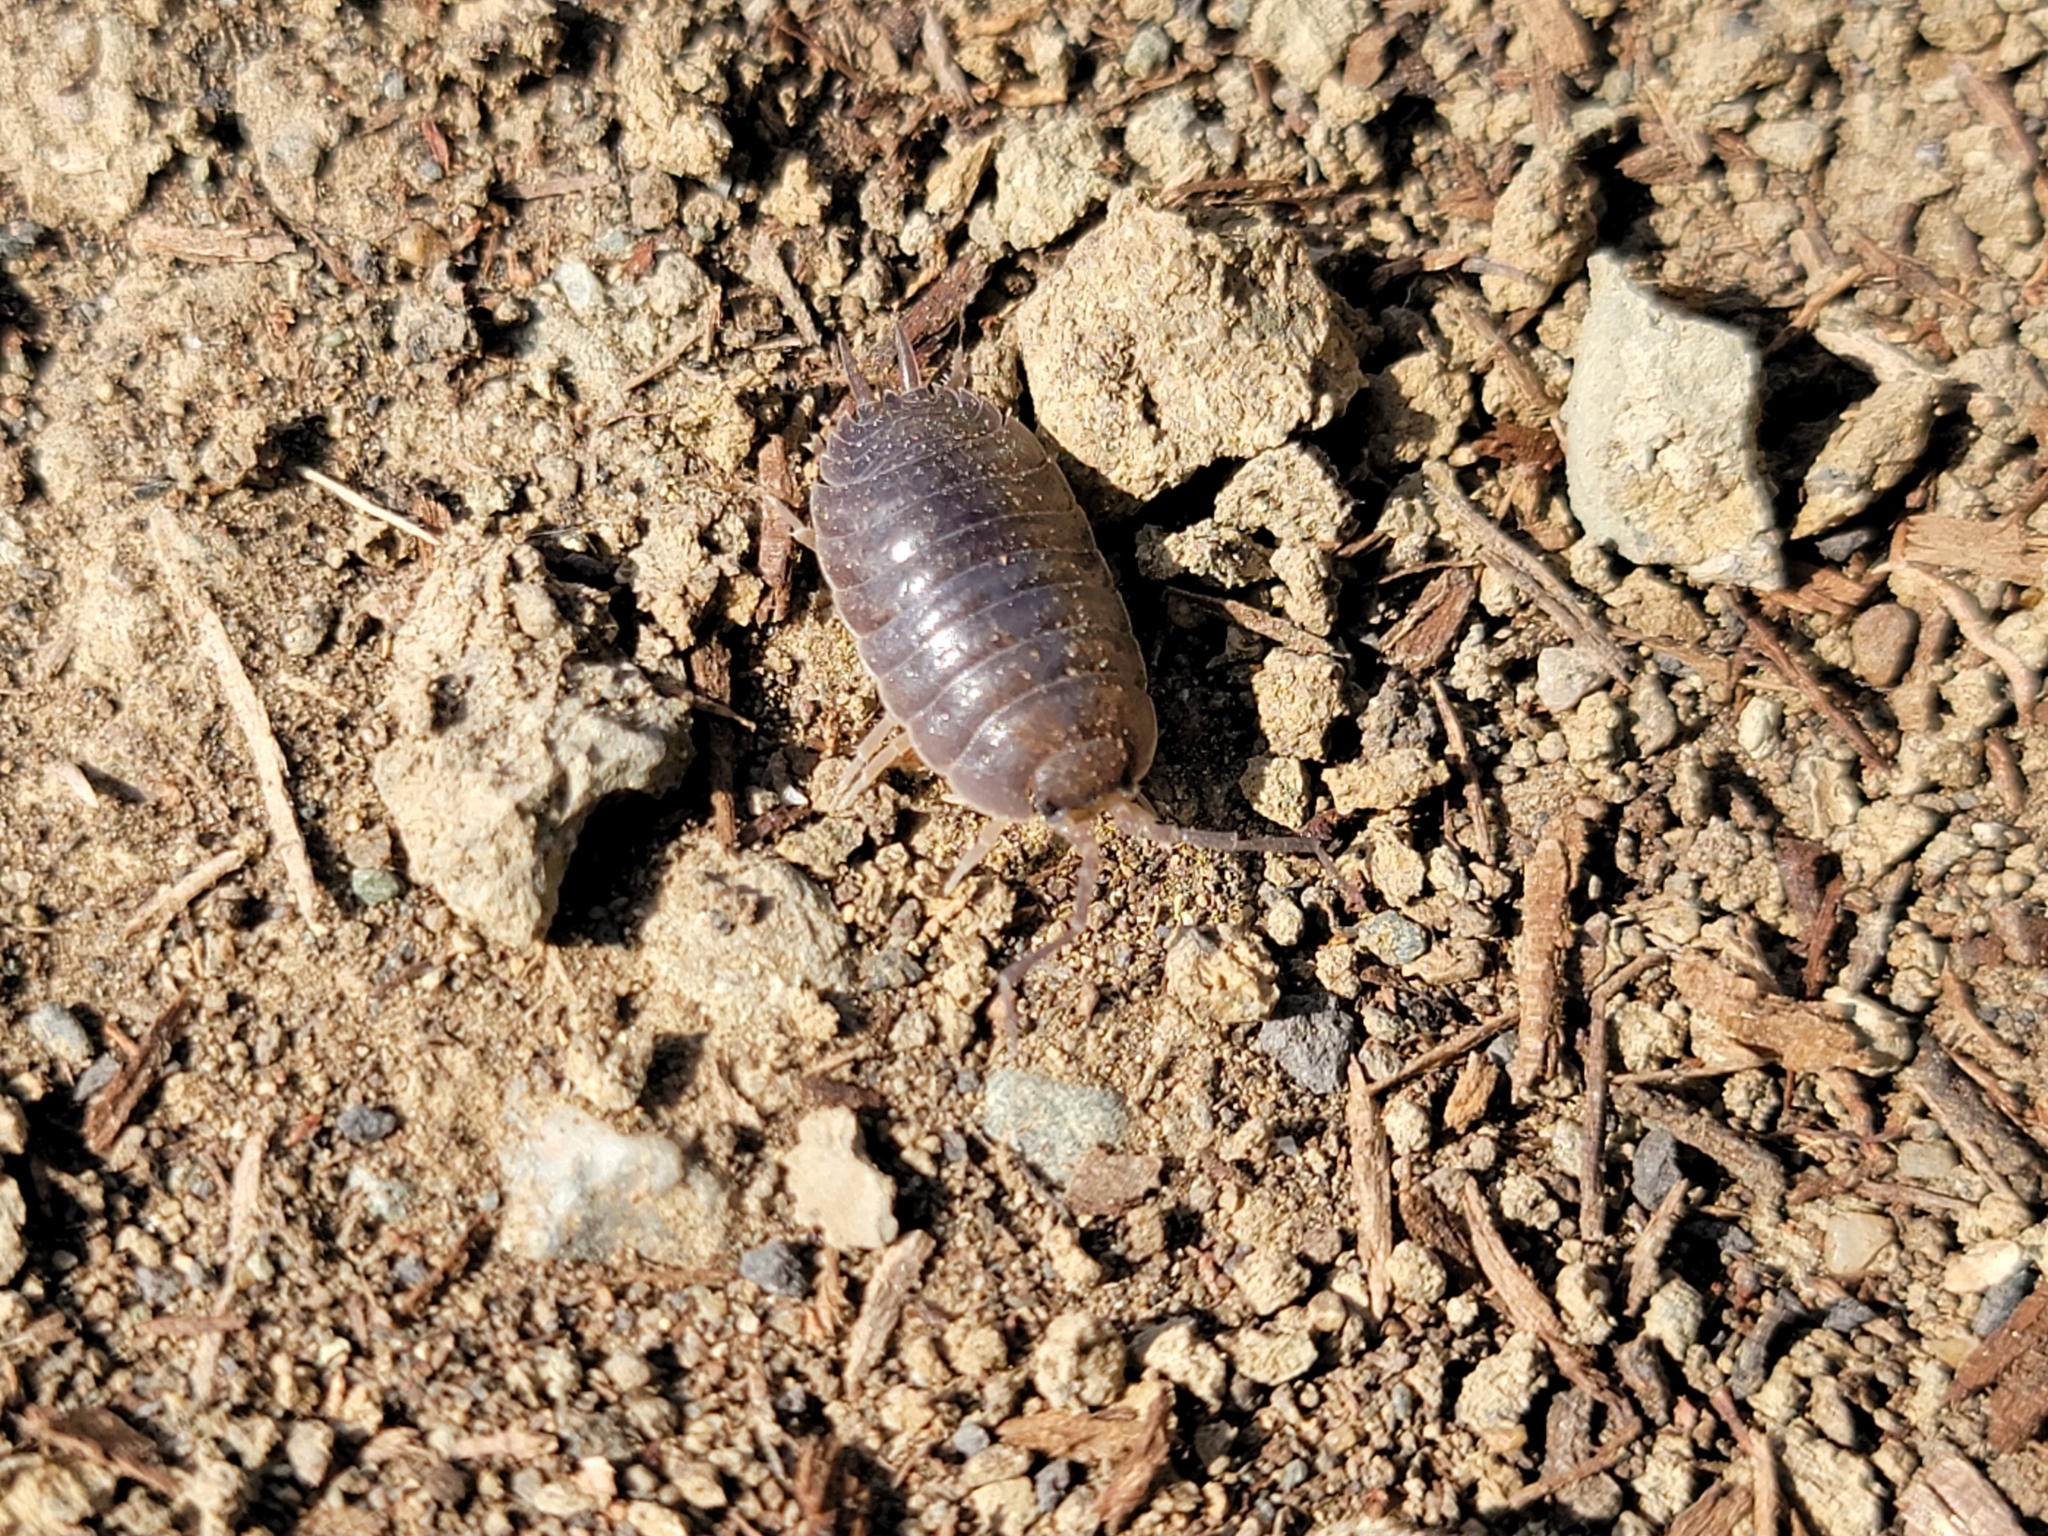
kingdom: Animalia
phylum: Arthropoda
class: Malacostraca
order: Isopoda
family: Porcellionidae
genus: Porcellio
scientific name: Porcellio laevis
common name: Swift woodlouse
